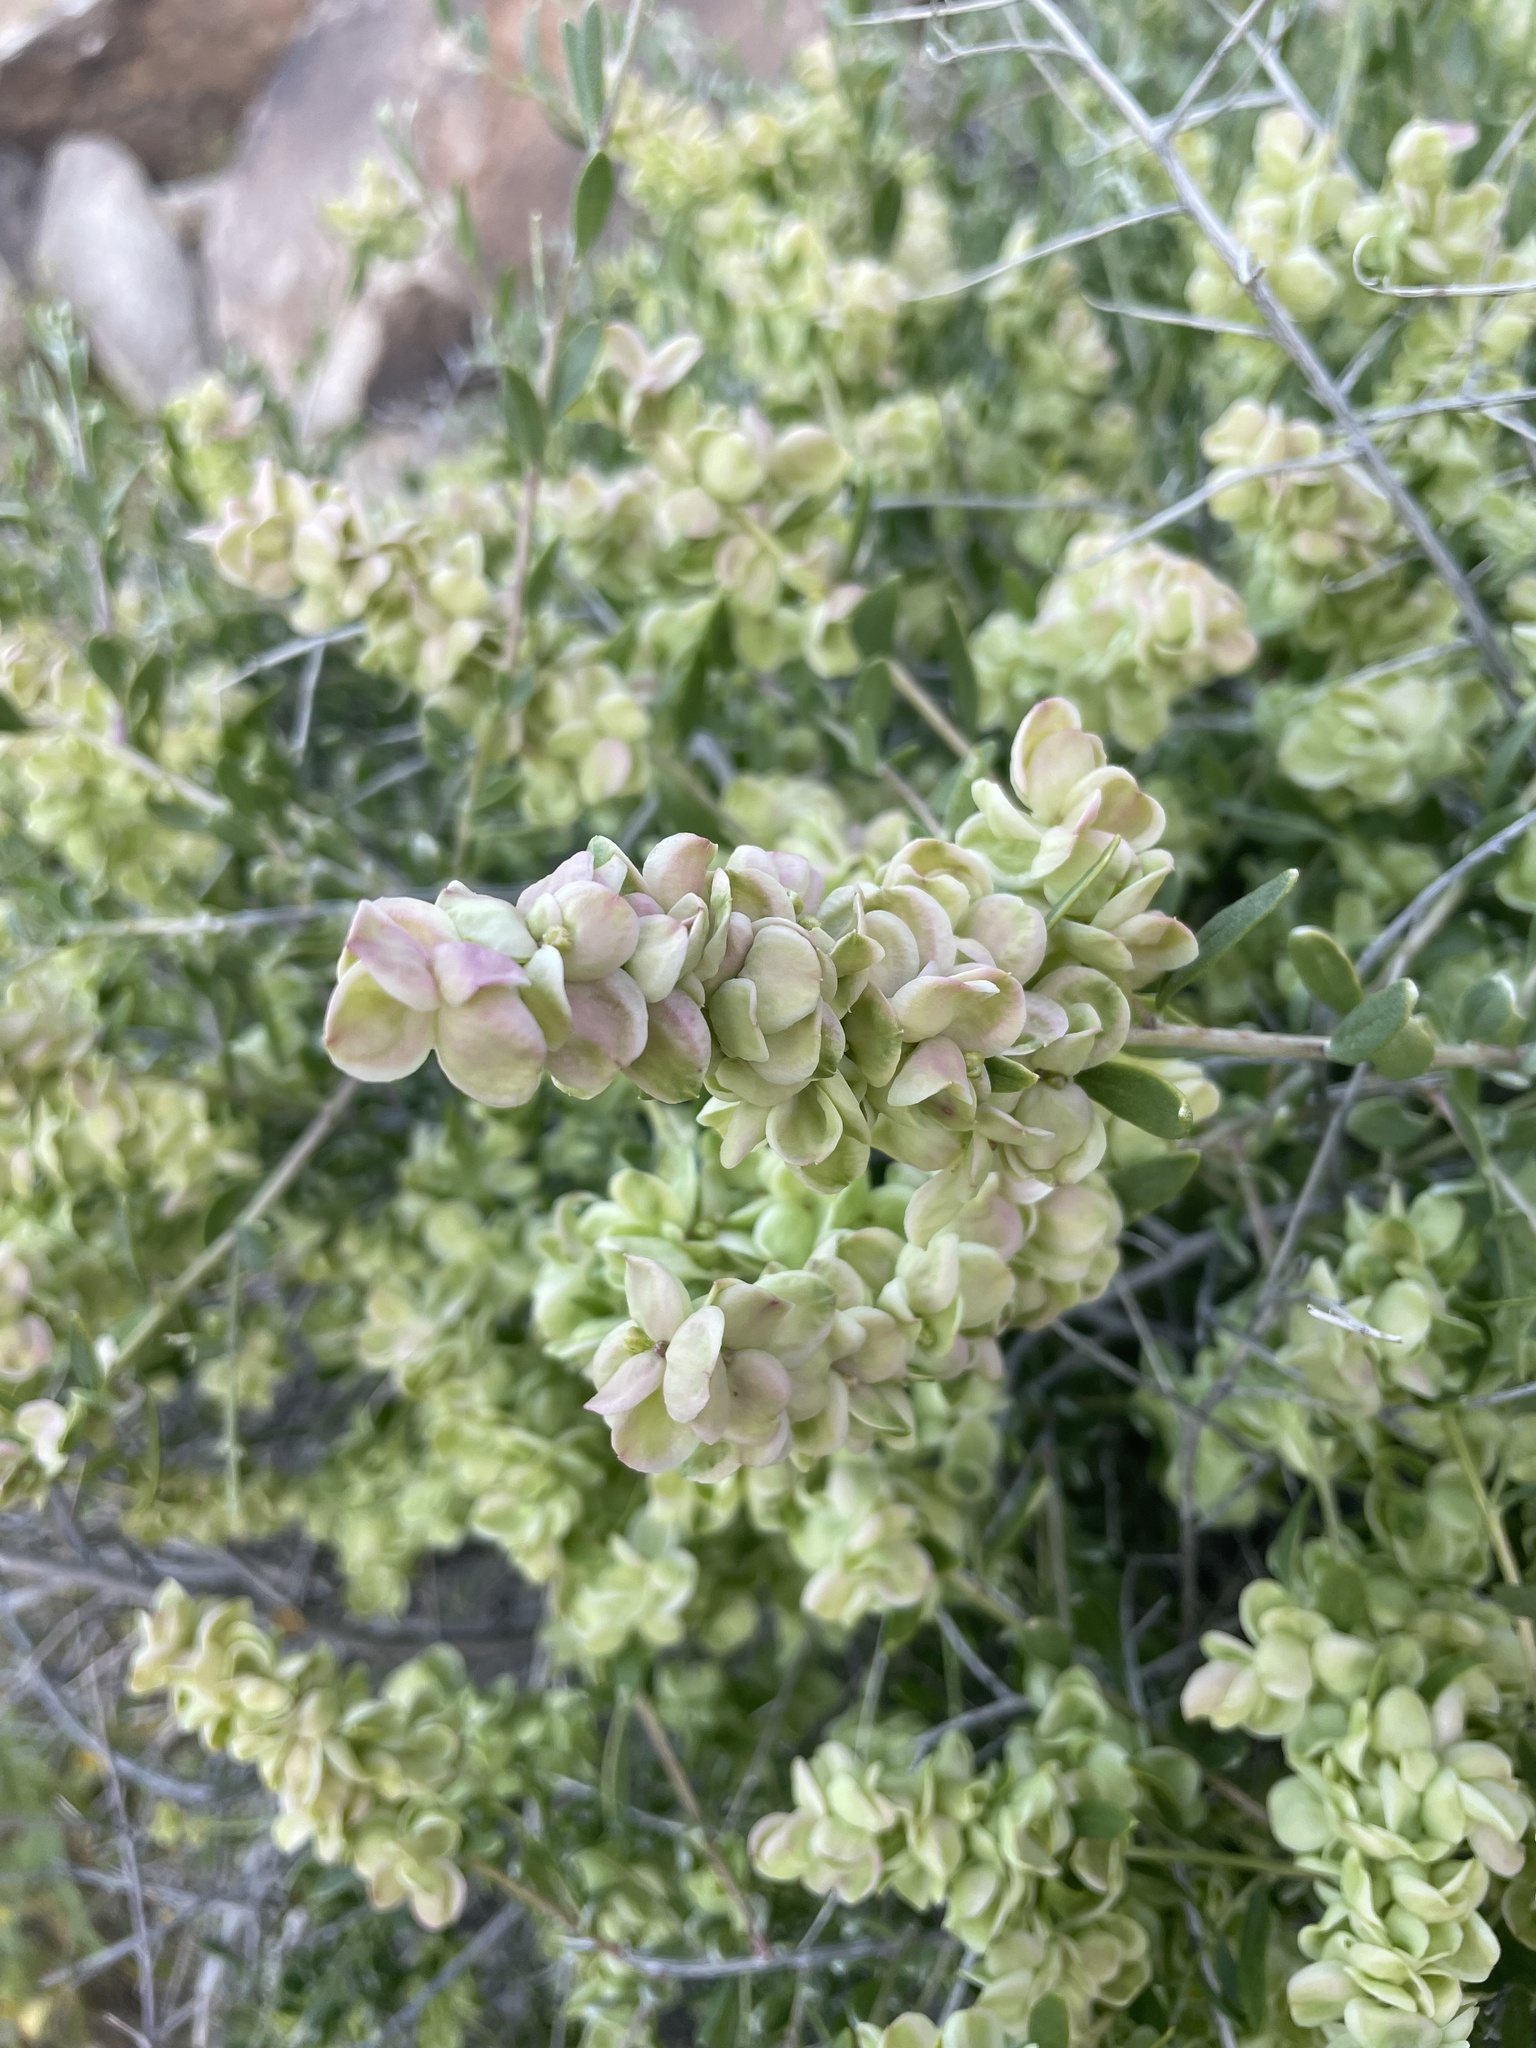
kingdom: Plantae
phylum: Tracheophyta
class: Magnoliopsida
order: Caryophyllales
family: Amaranthaceae
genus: Grayia
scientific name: Grayia spinosa
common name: Spiny hopsage
